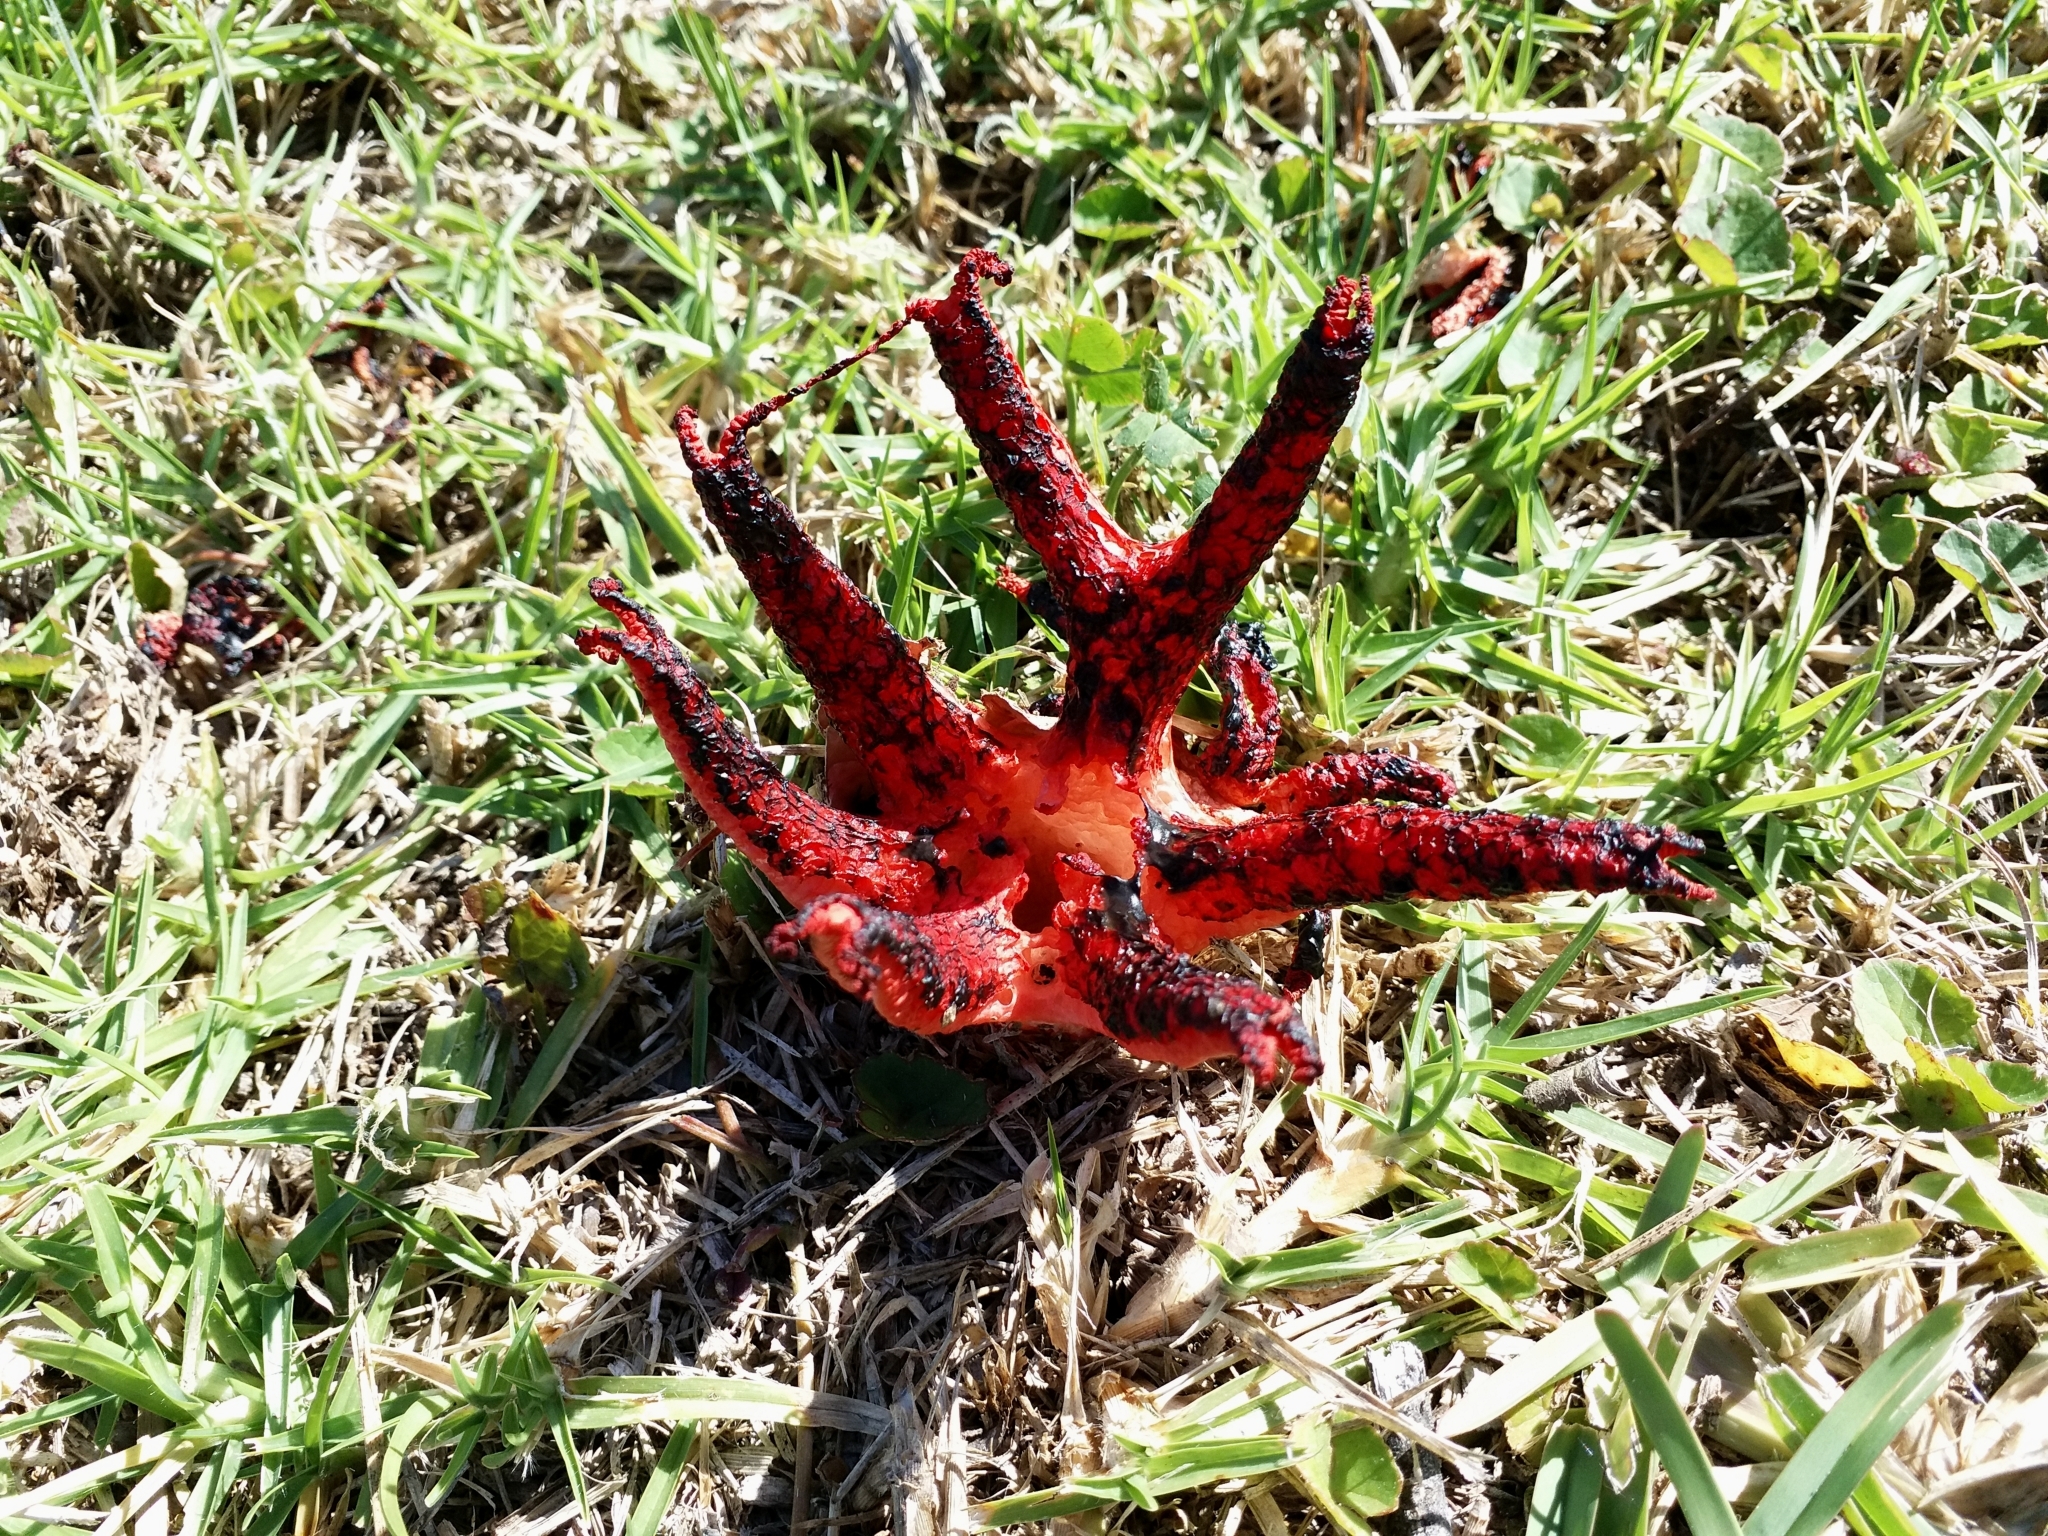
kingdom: Fungi
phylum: Basidiomycota
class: Agaricomycetes
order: Phallales
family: Phallaceae
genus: Clathrus
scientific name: Clathrus archeri
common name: Devil's fingers
